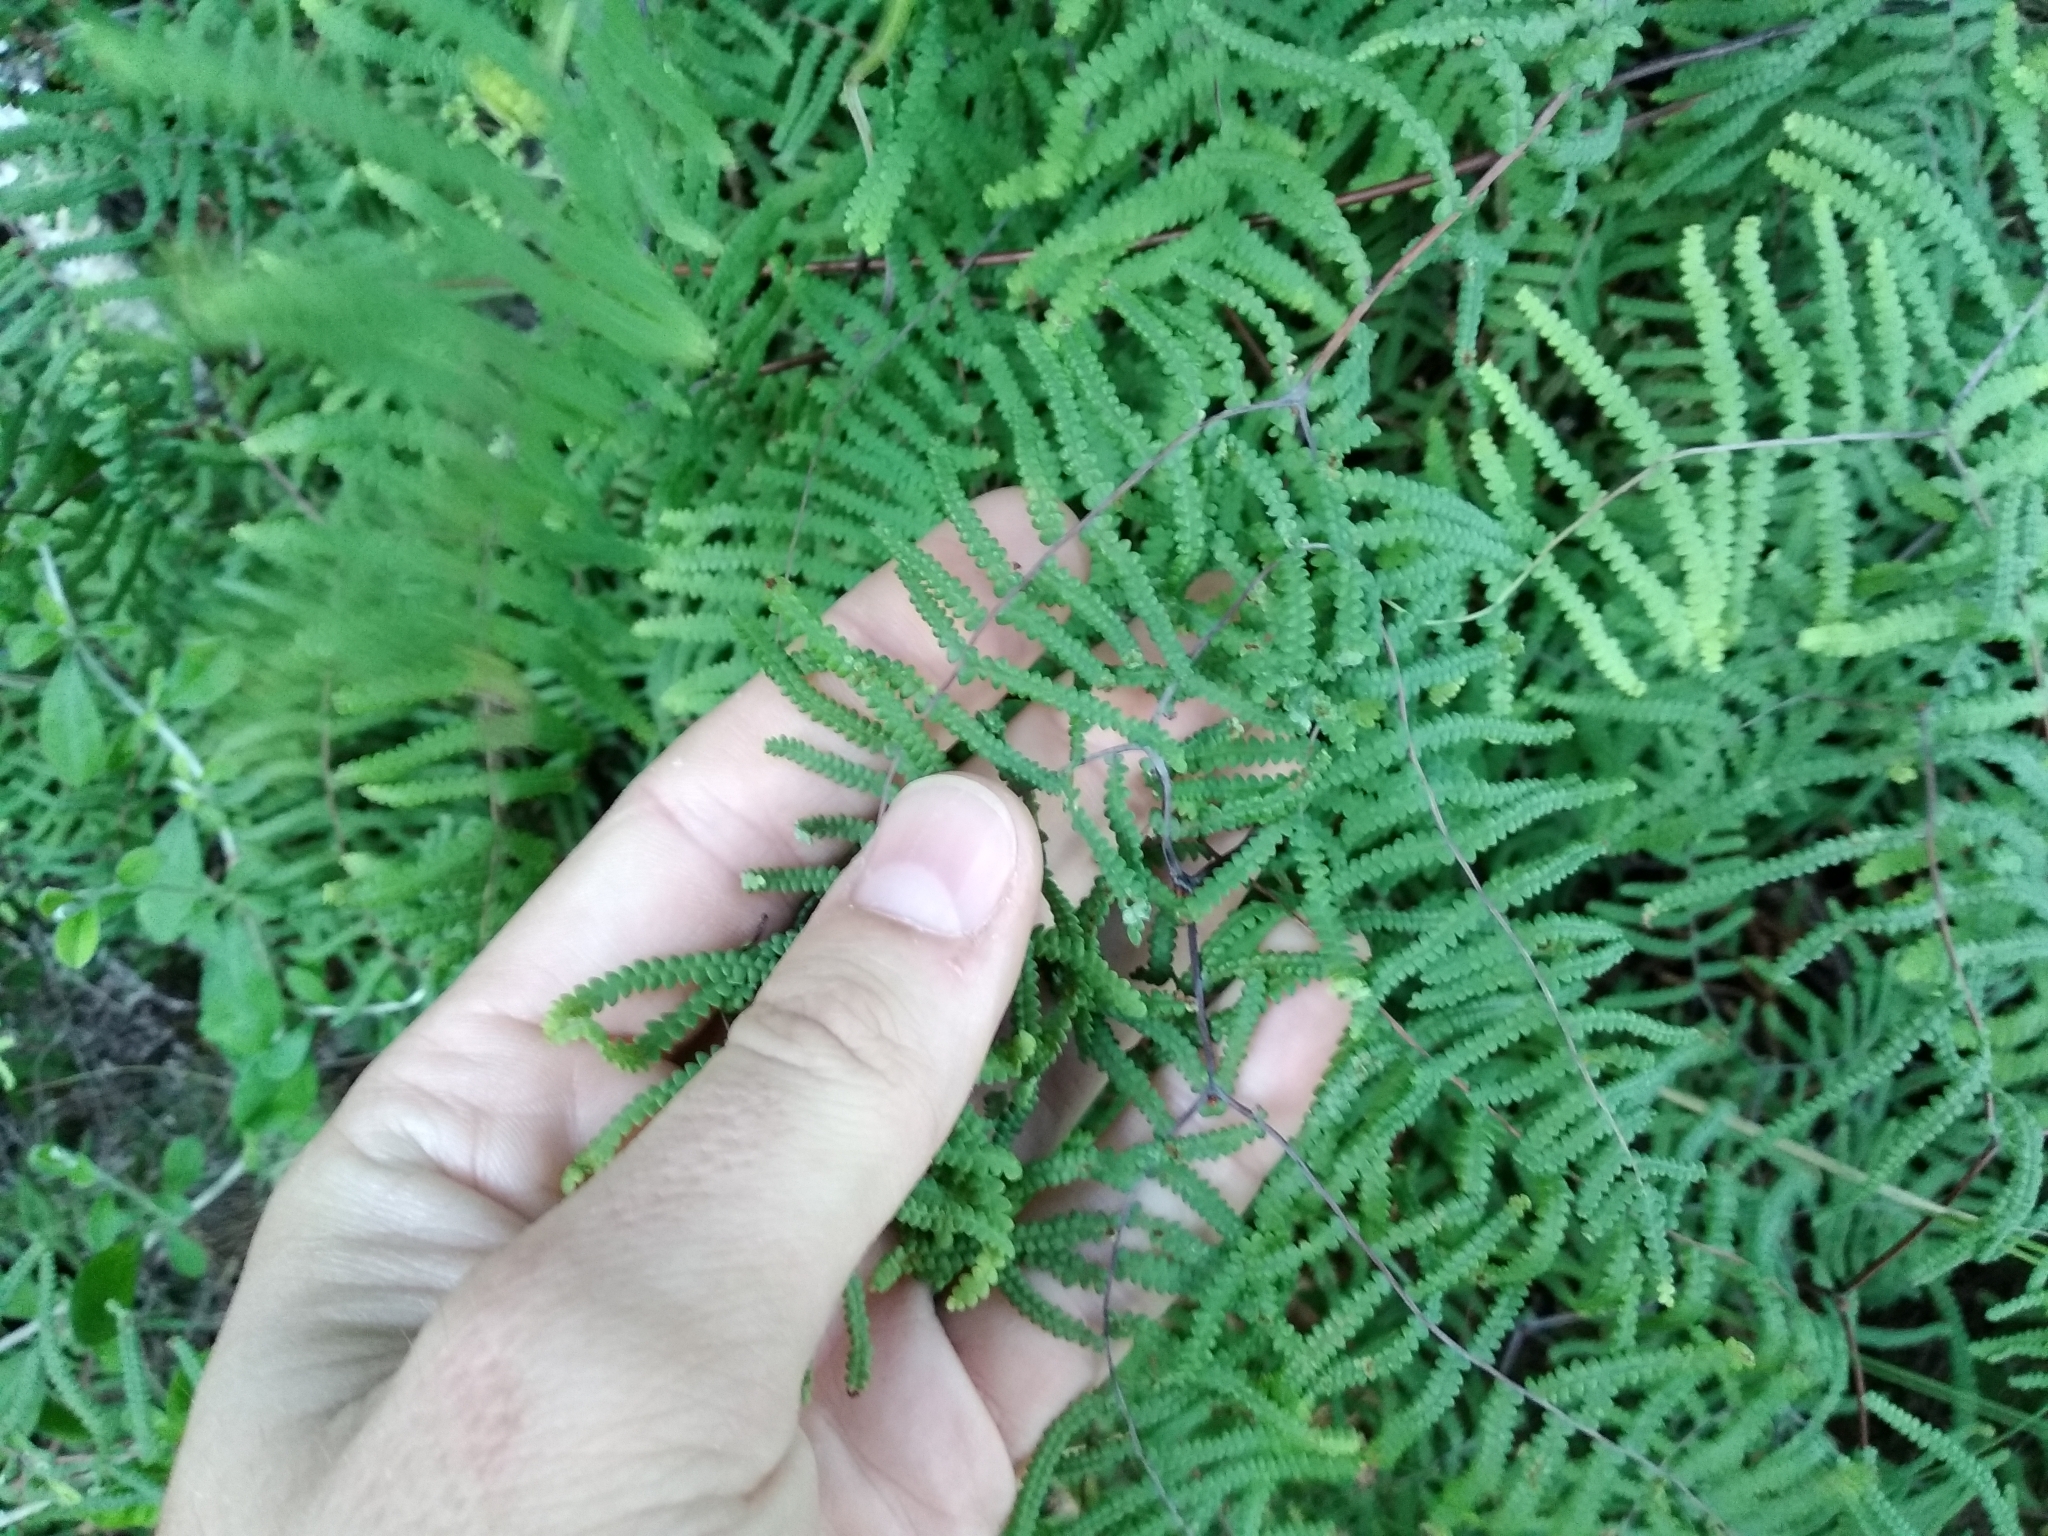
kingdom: Plantae
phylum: Tracheophyta
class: Polypodiopsida
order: Gleicheniales
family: Gleicheniaceae
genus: Gleichenia
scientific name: Gleichenia polypodioides
